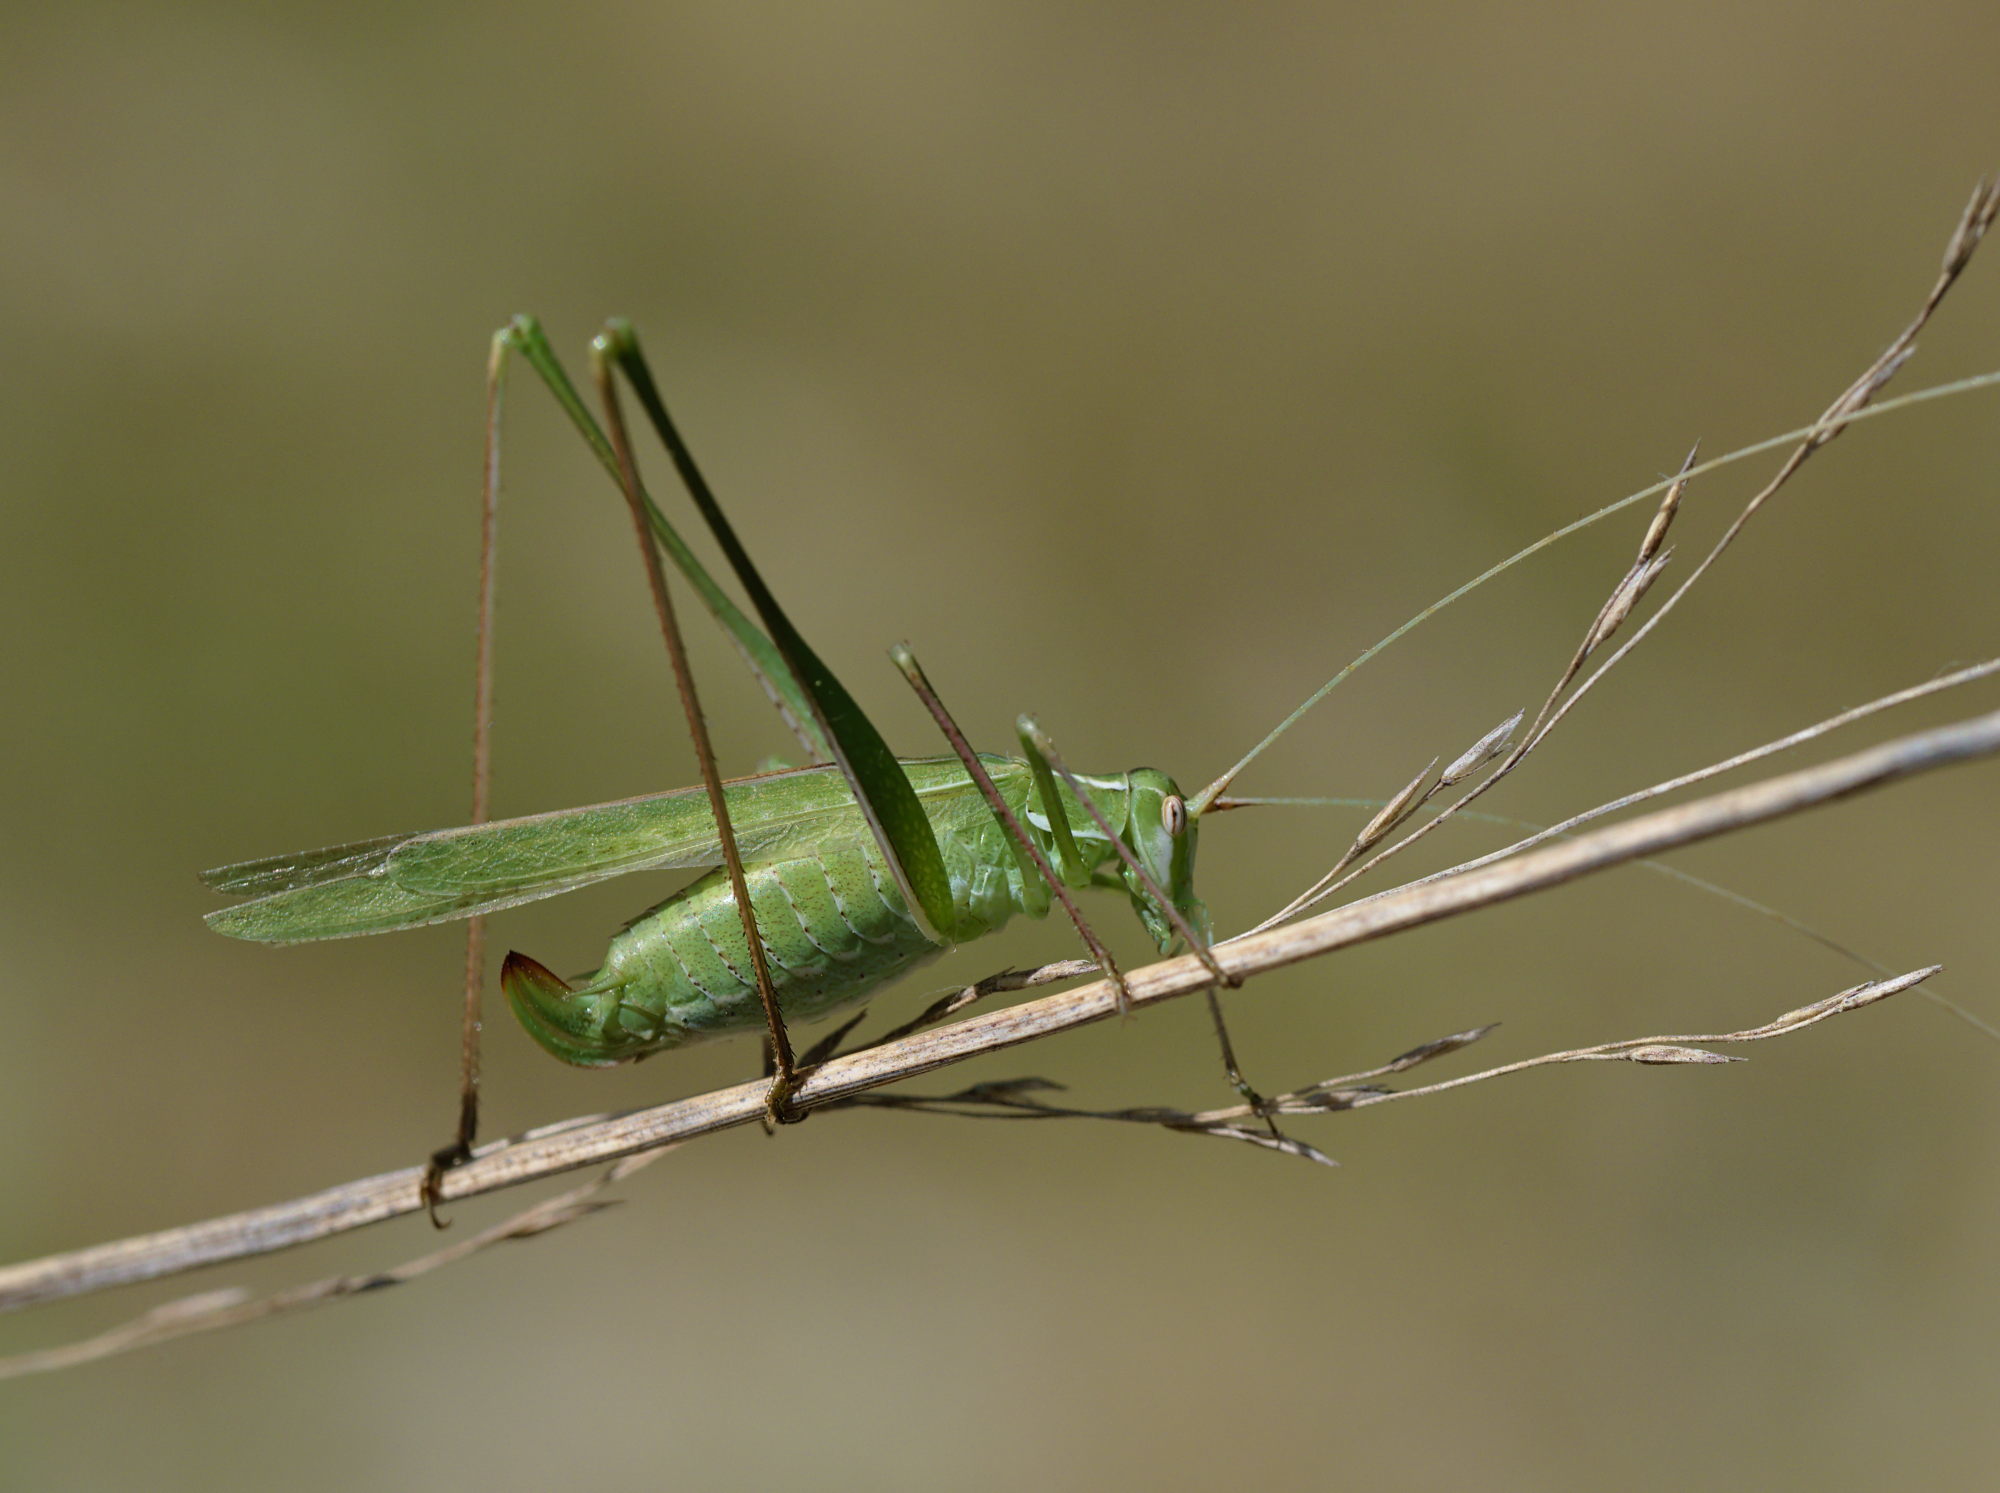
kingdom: Animalia
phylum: Arthropoda
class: Insecta
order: Orthoptera
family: Tettigoniidae
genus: Tylopsis
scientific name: Tylopsis lilifolia
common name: Lily bush-cricket
